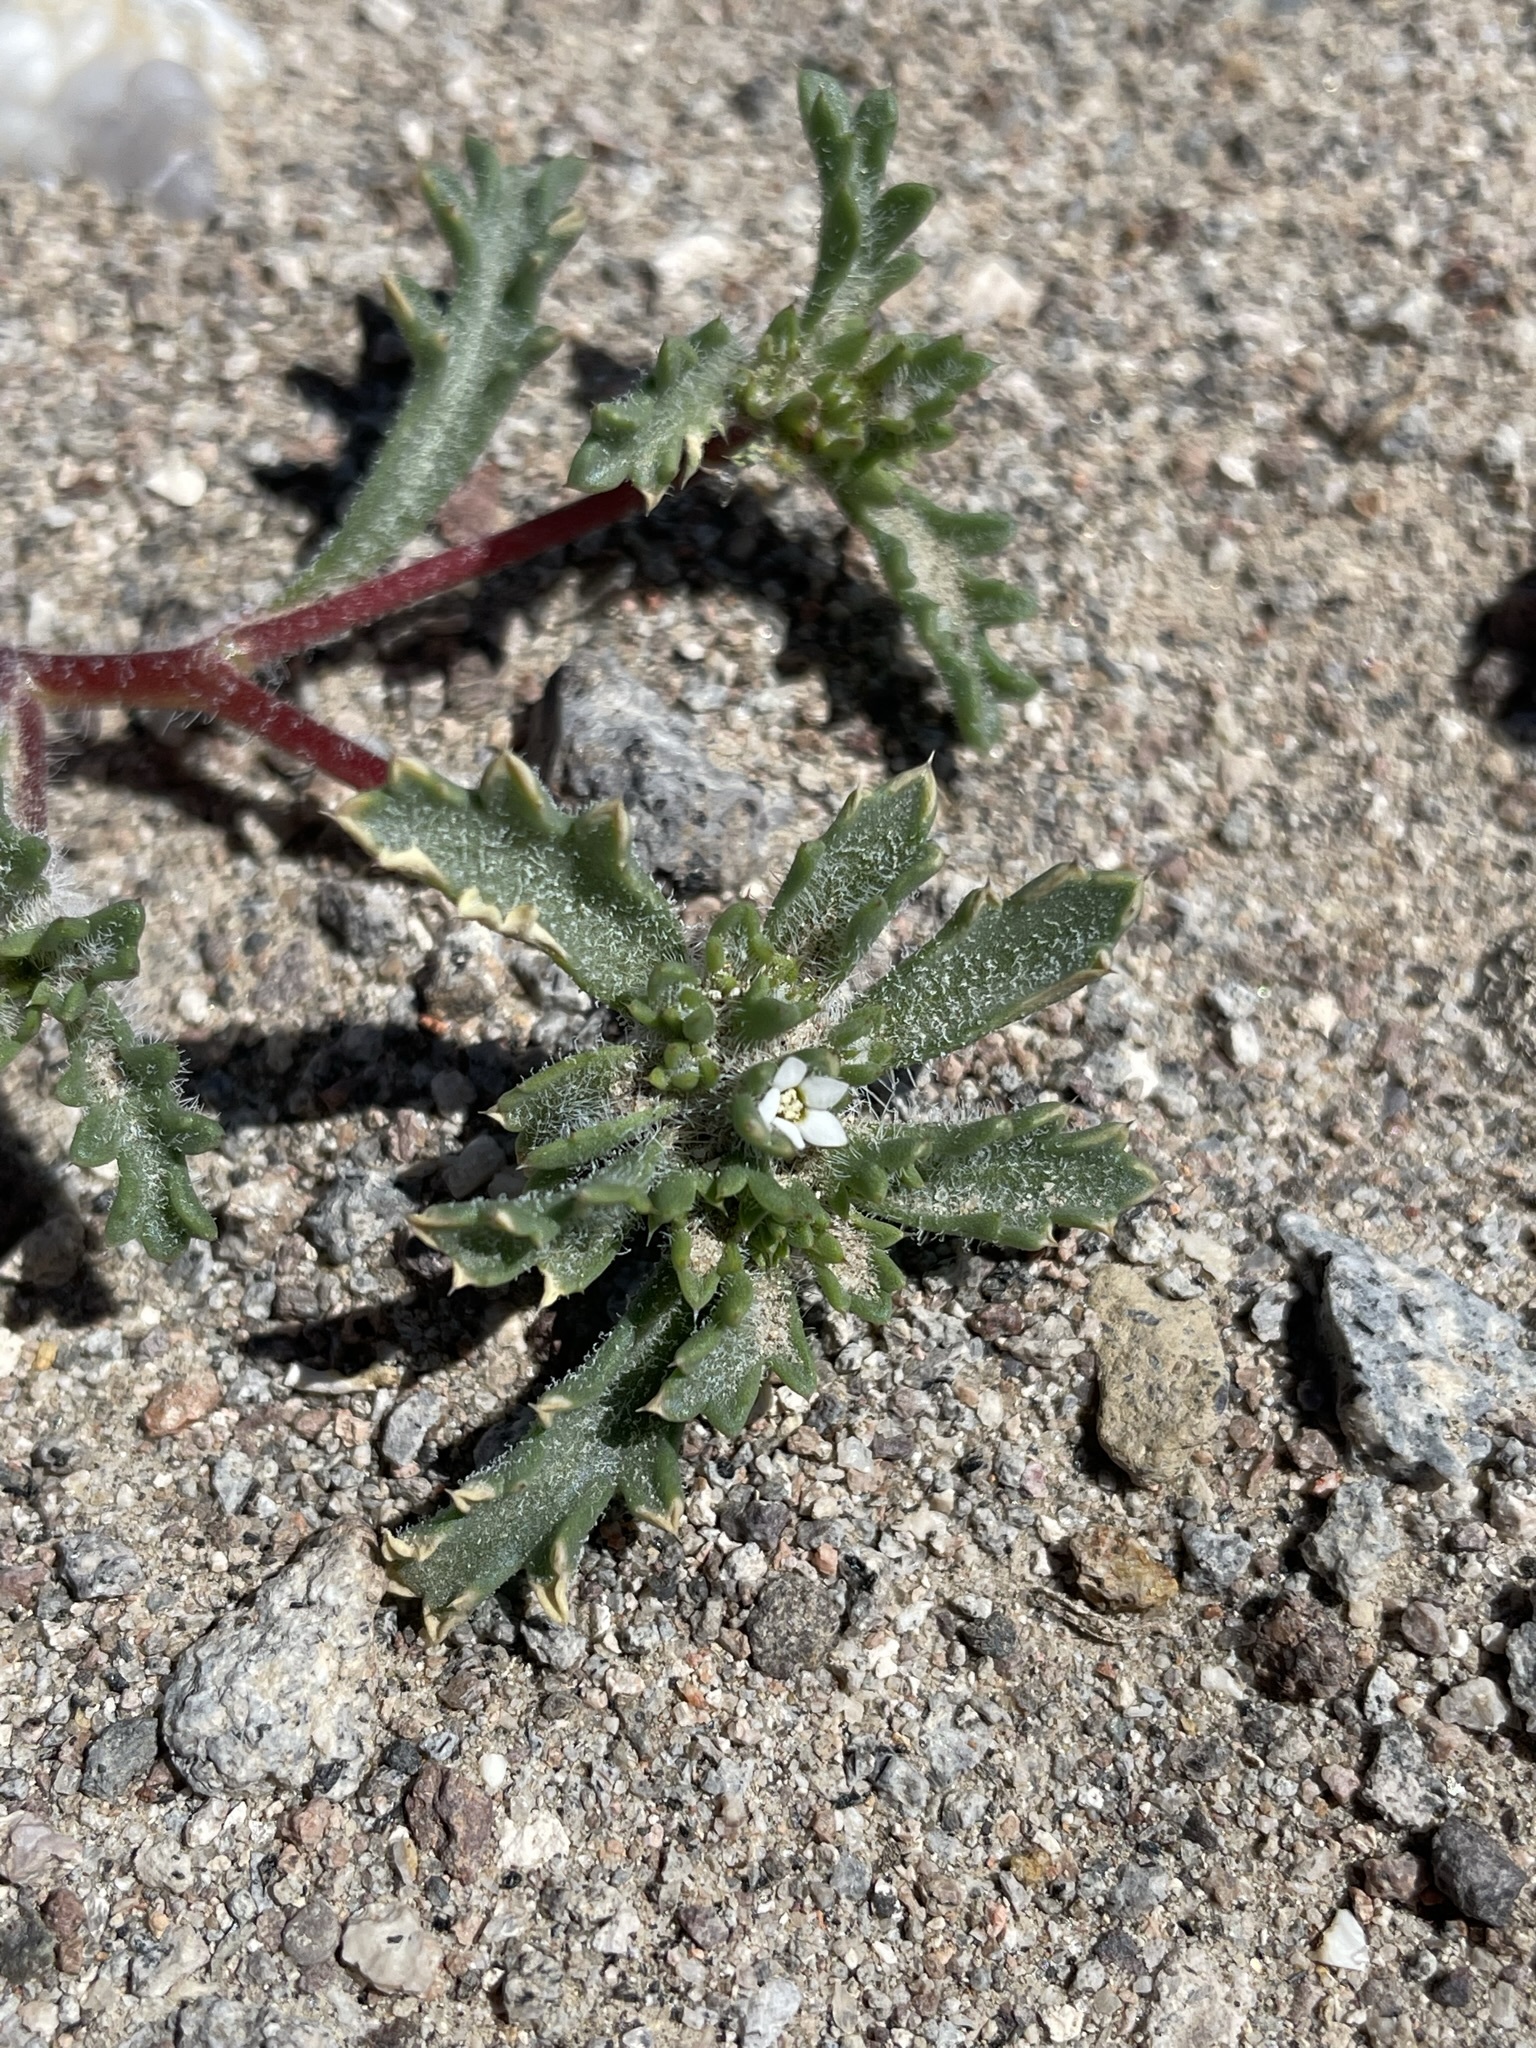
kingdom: Plantae
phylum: Tracheophyta
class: Magnoliopsida
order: Ericales
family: Polemoniaceae
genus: Ipomopsis
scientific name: Ipomopsis polycladon
